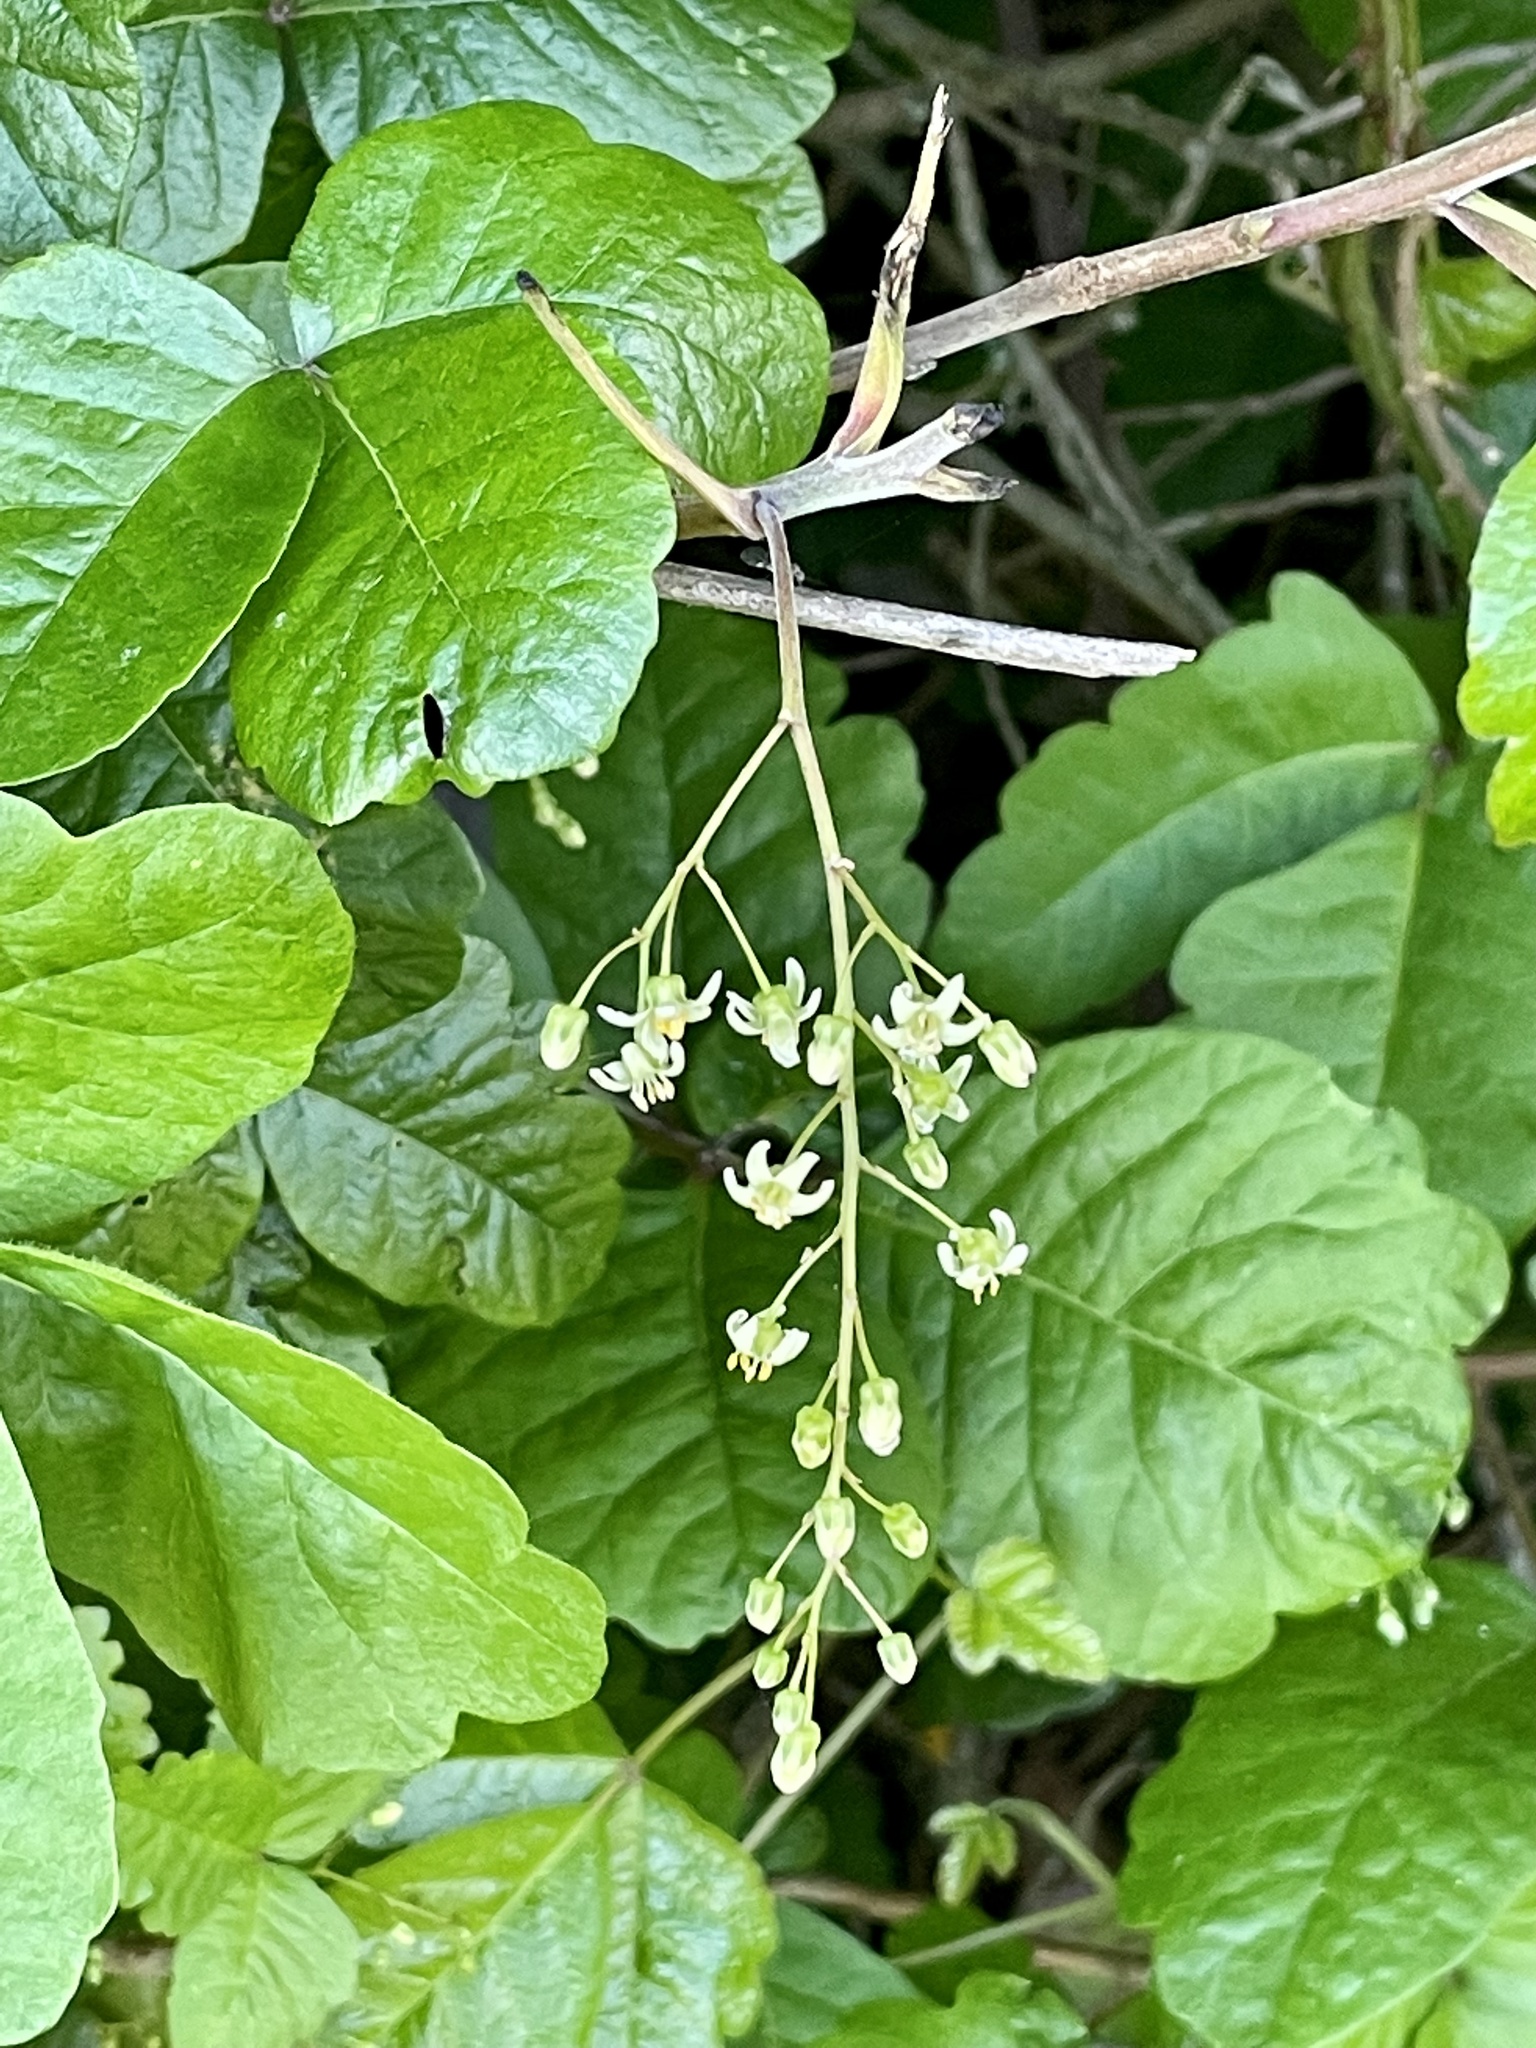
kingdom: Plantae
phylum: Tracheophyta
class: Magnoliopsida
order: Sapindales
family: Anacardiaceae
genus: Toxicodendron
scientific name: Toxicodendron diversilobum
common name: Pacific poison-oak
